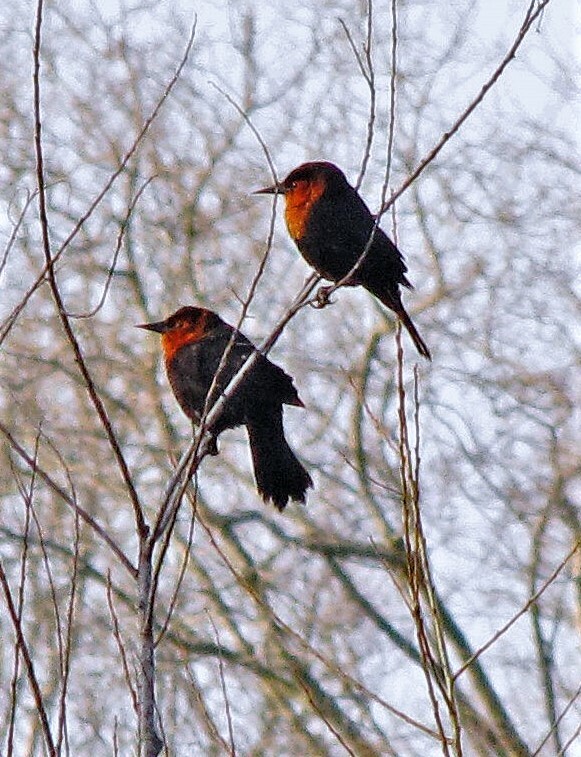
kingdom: Animalia
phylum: Chordata
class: Aves
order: Passeriformes
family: Icteridae
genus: Amblyramphus
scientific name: Amblyramphus holosericeus
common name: Scarlet-headed blackbird
